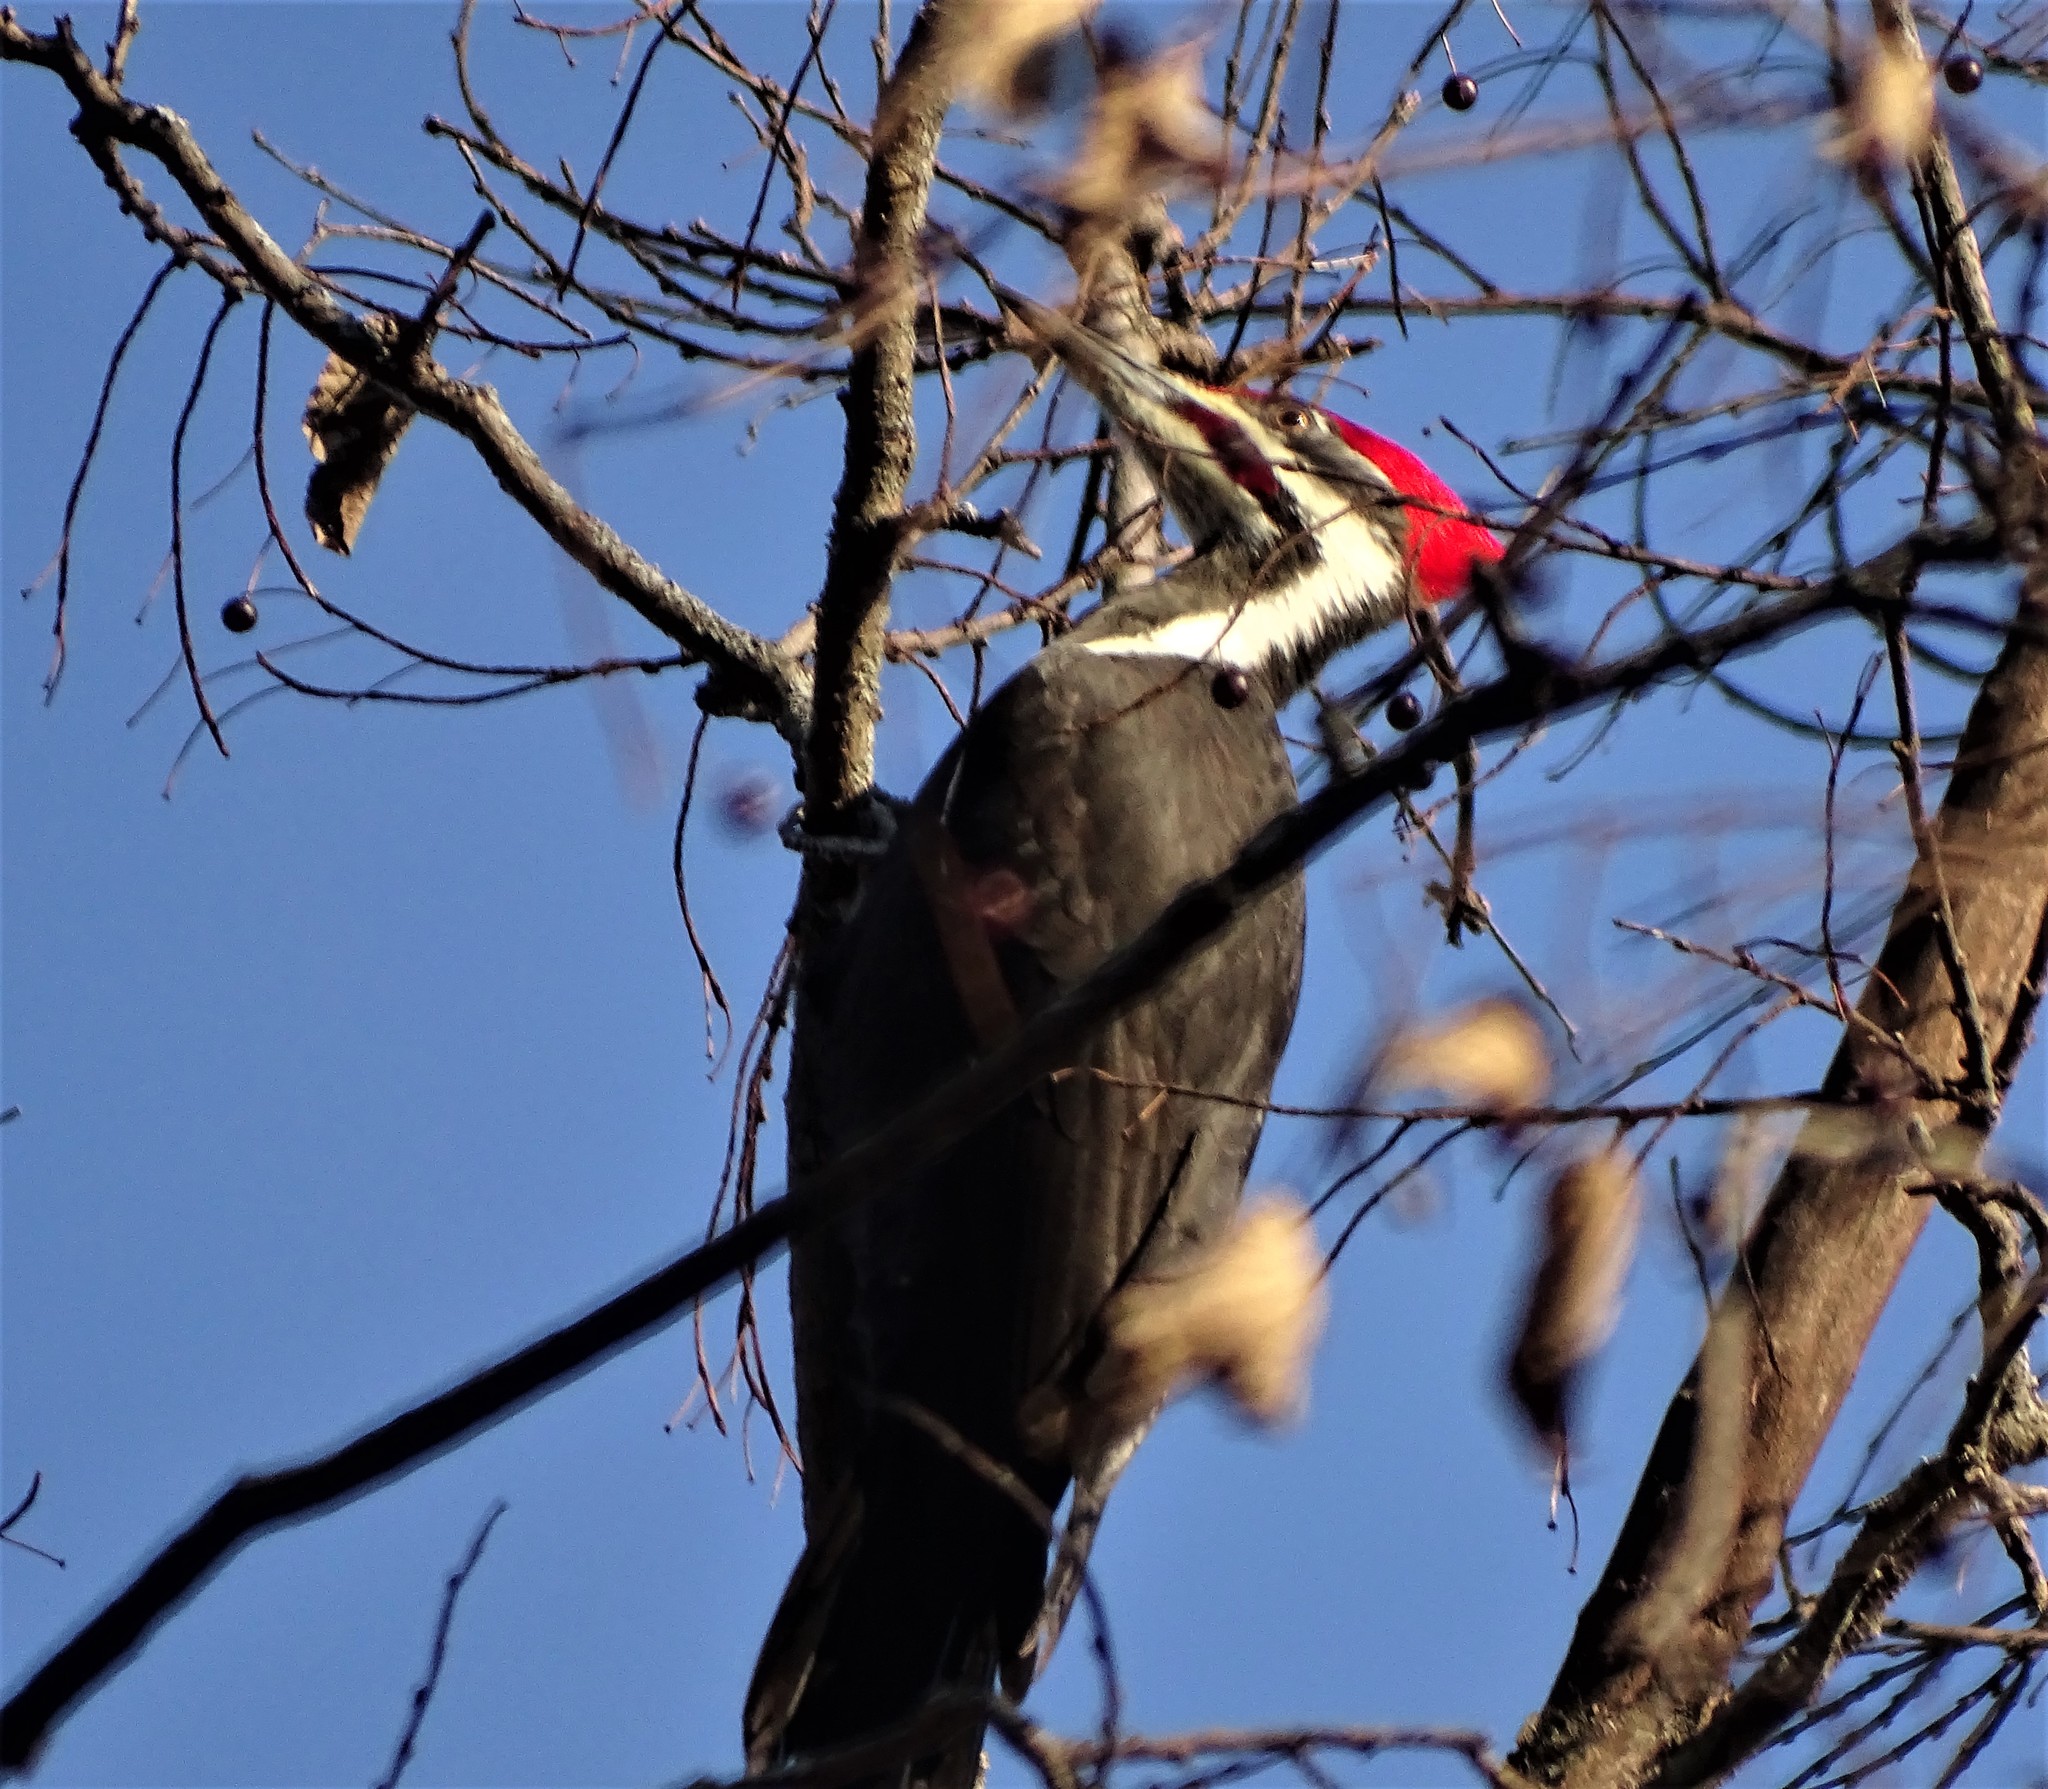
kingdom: Animalia
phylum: Chordata
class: Aves
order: Piciformes
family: Picidae
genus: Dryocopus
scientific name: Dryocopus pileatus
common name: Pileated woodpecker
